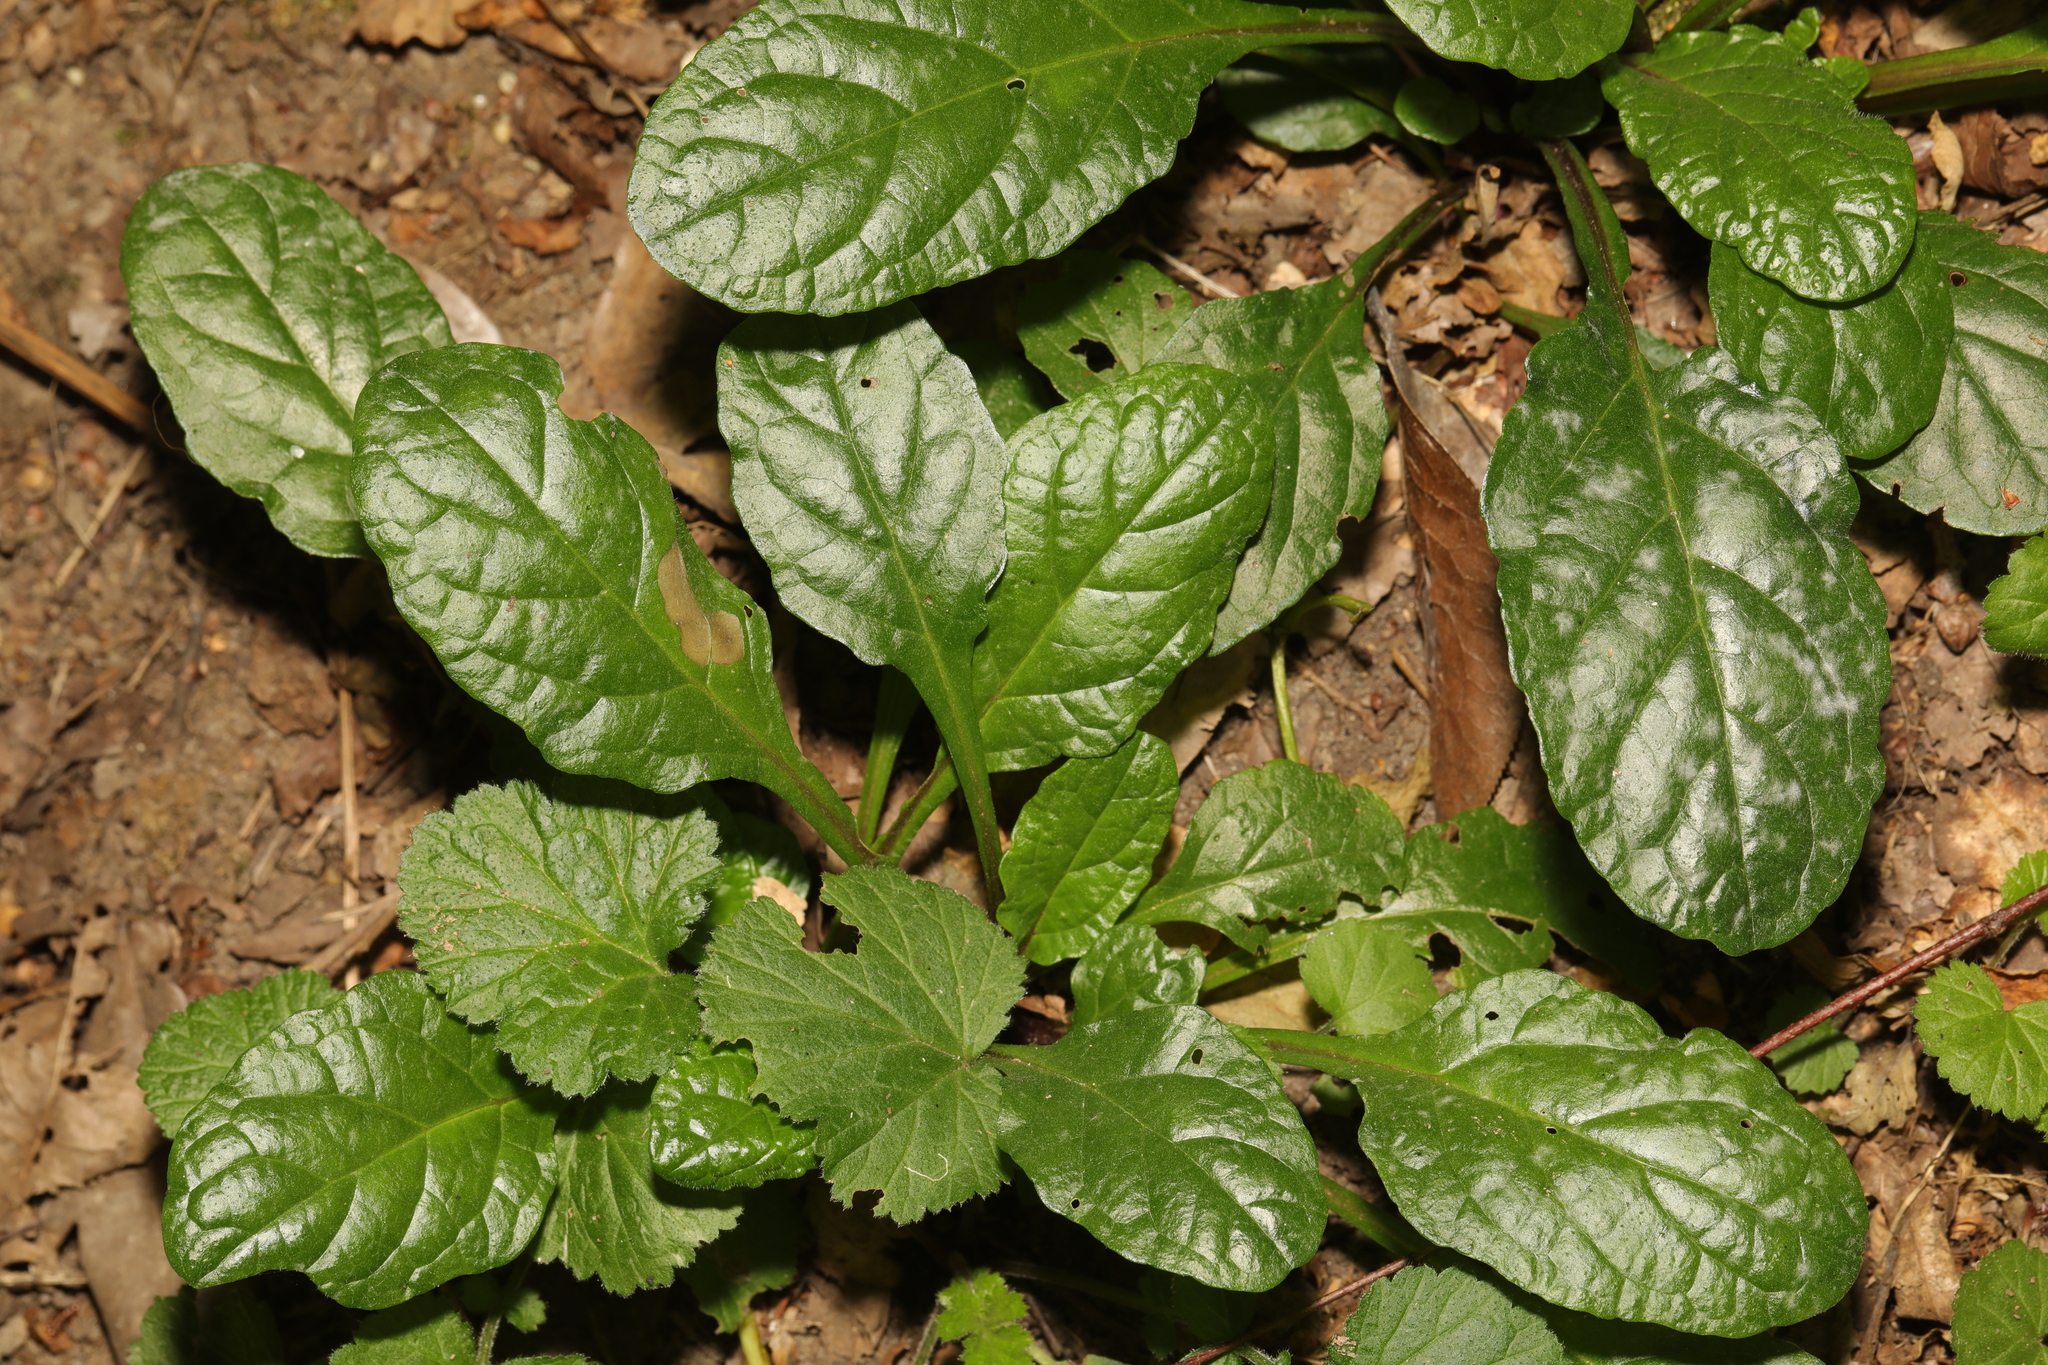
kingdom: Plantae
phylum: Tracheophyta
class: Magnoliopsida
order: Lamiales
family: Lamiaceae
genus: Ajuga
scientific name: Ajuga reptans
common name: Bugle
